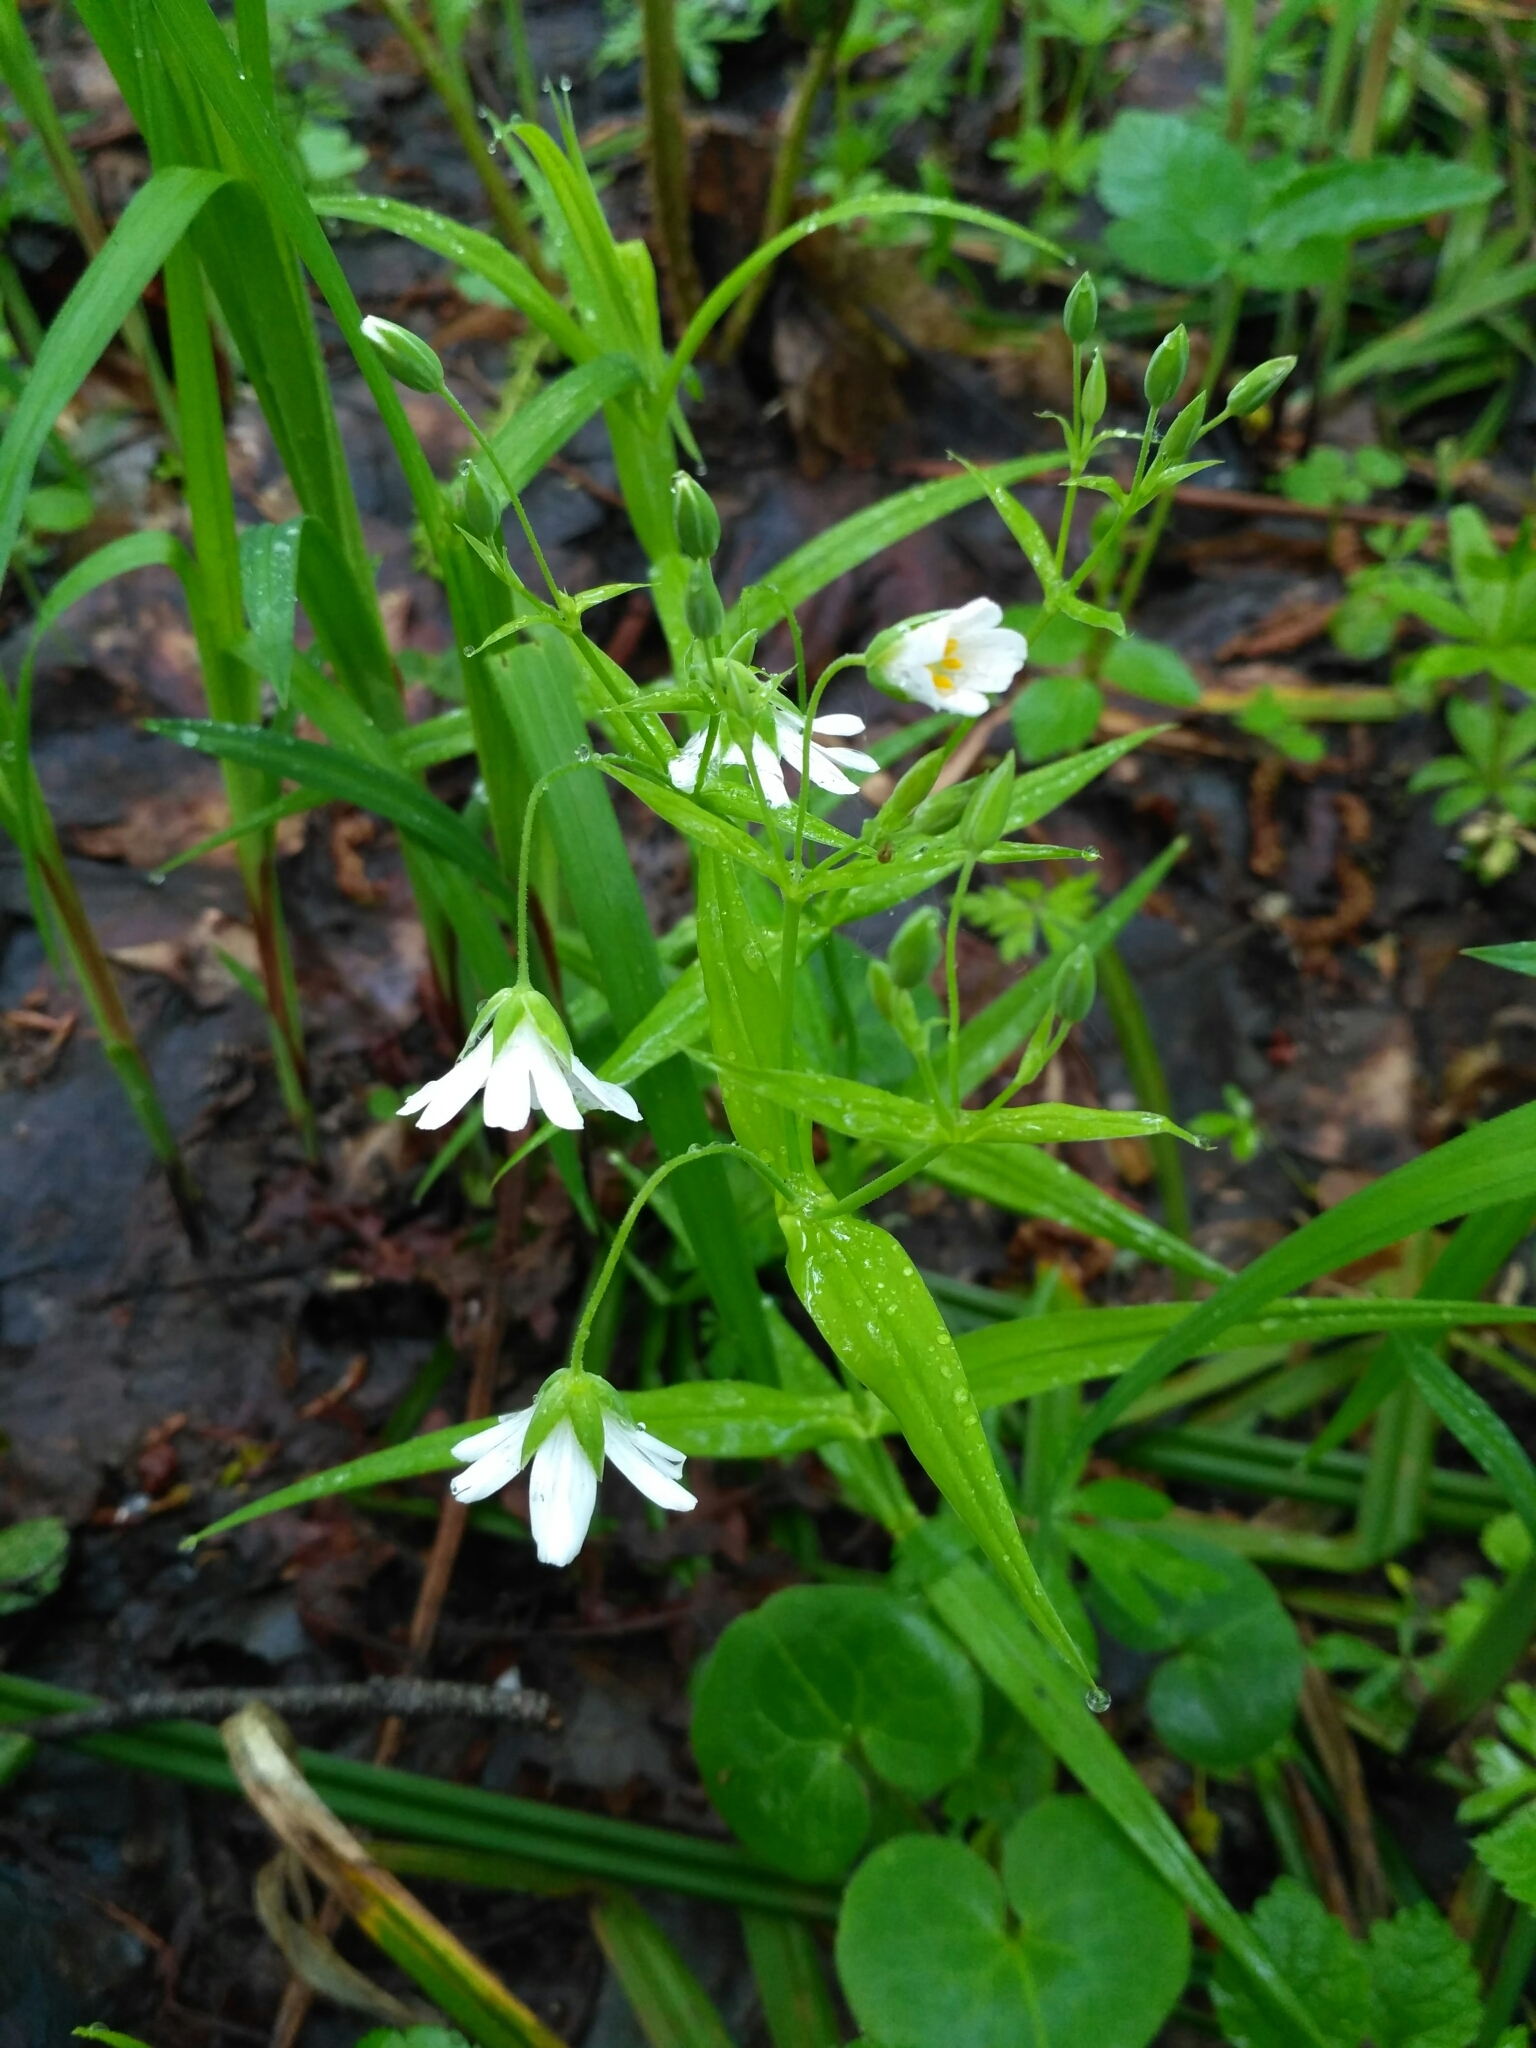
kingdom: Plantae
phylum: Tracheophyta
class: Magnoliopsida
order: Caryophyllales
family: Caryophyllaceae
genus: Rabelera
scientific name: Rabelera holostea
